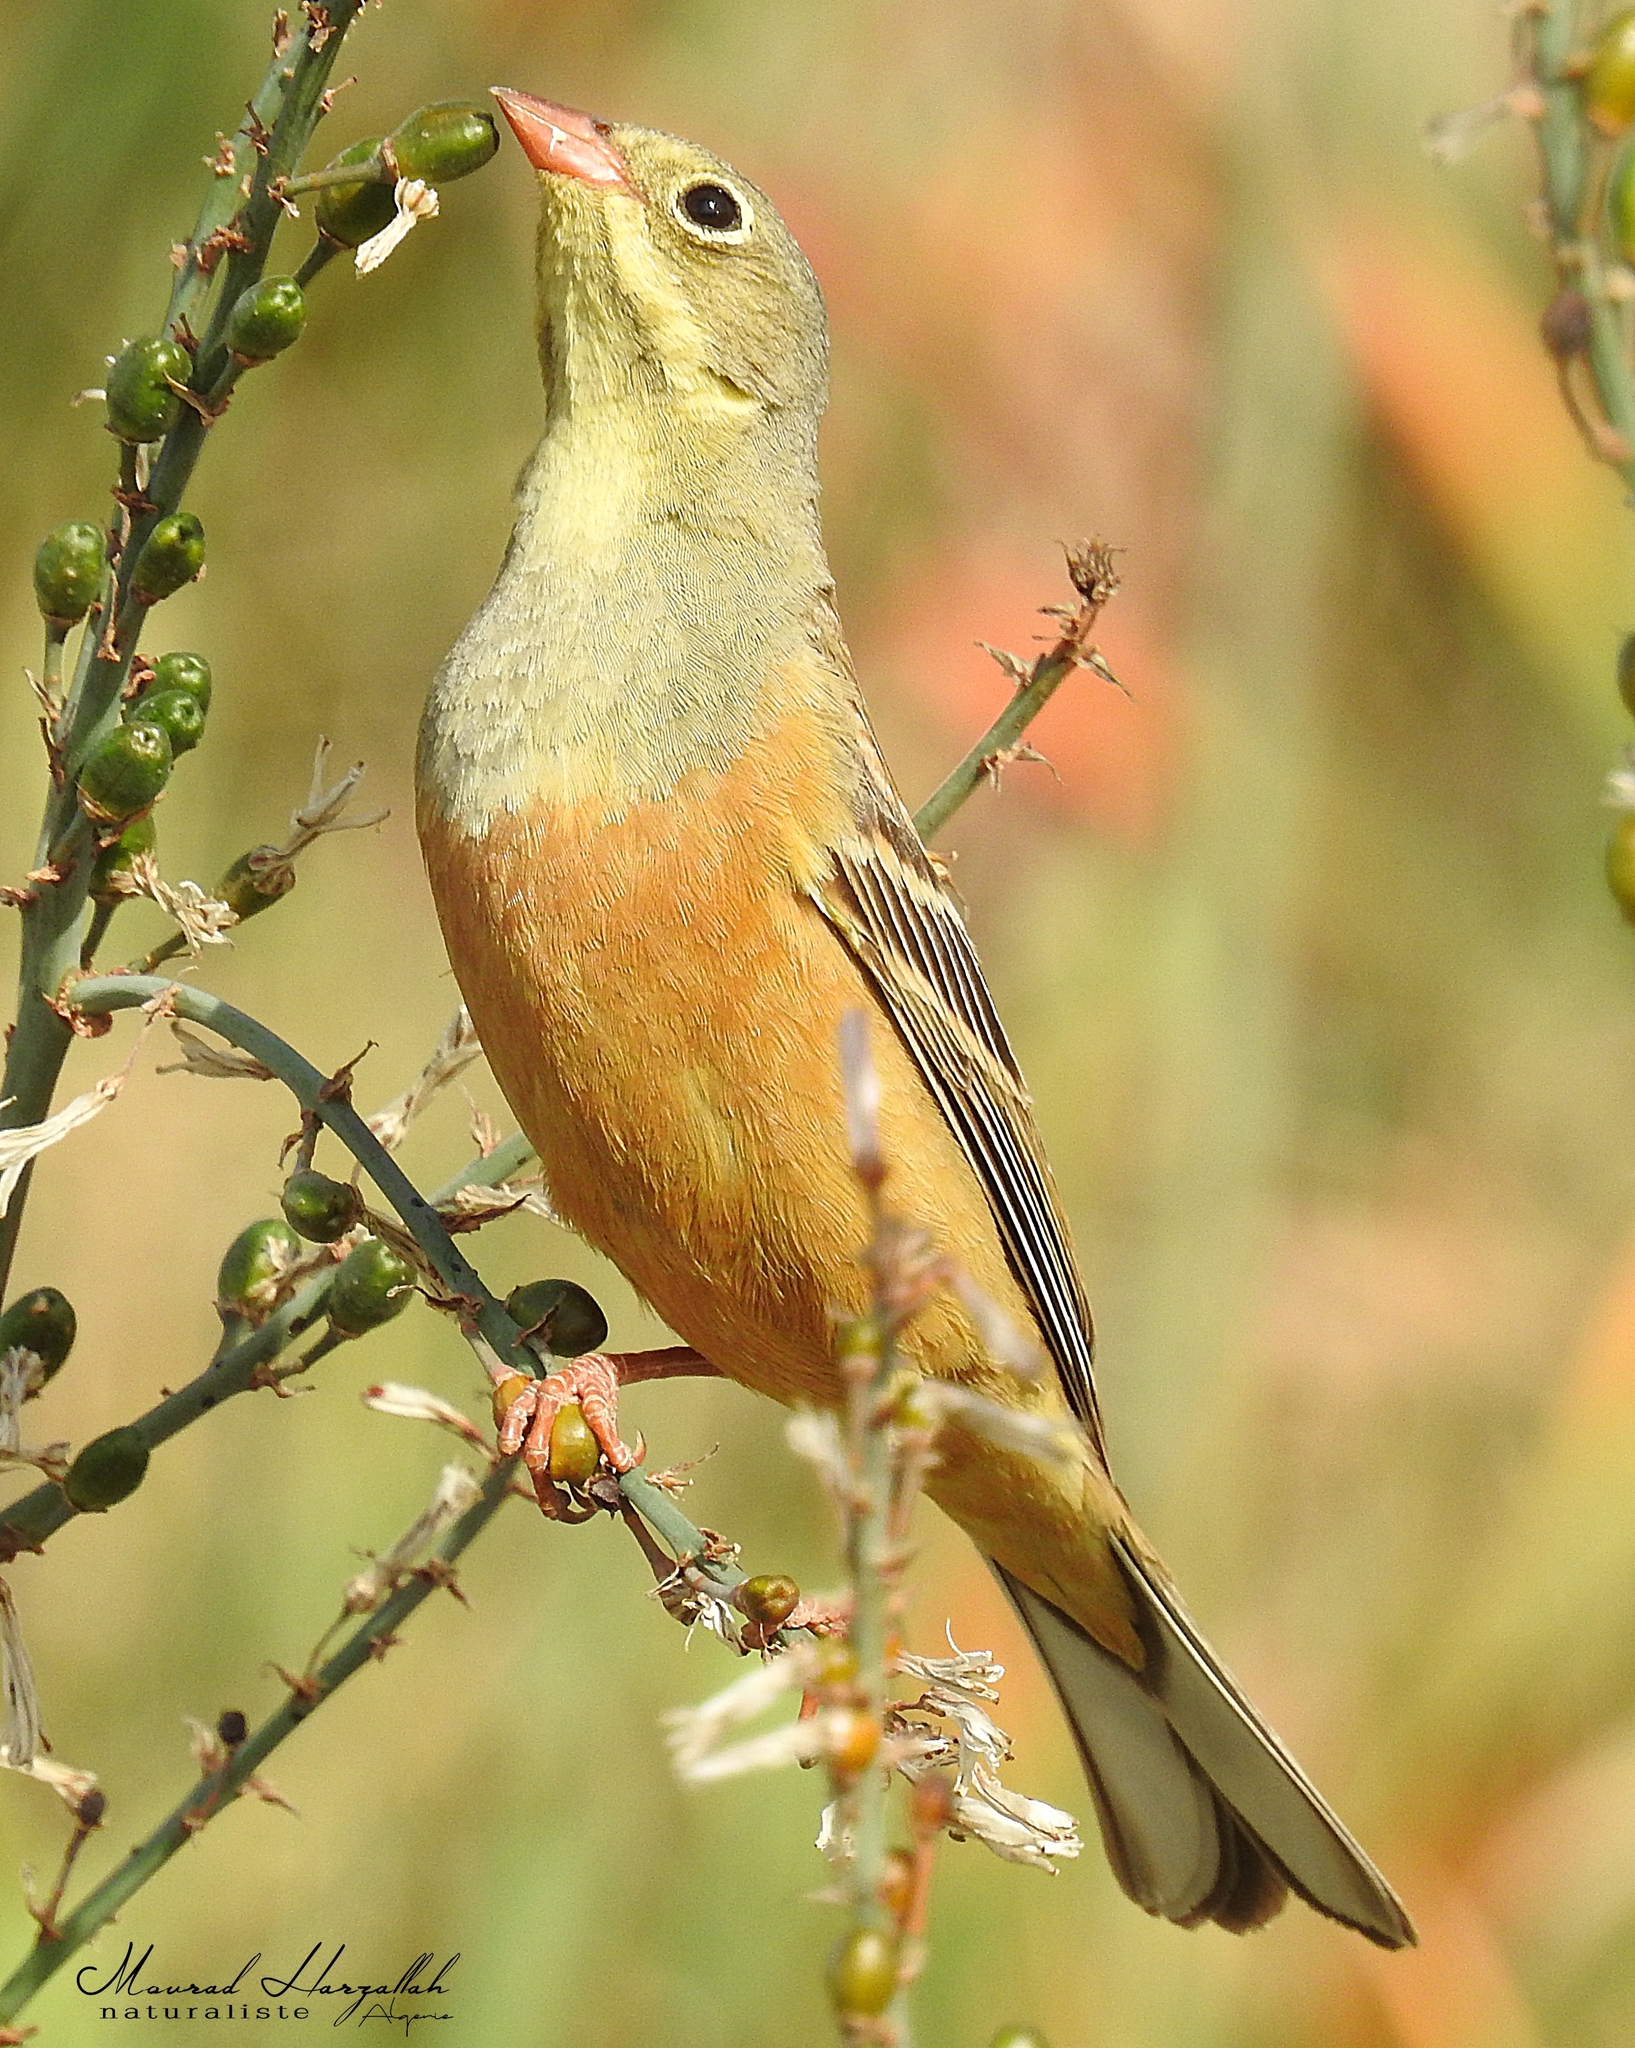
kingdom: Animalia
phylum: Chordata
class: Aves
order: Passeriformes
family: Emberizidae
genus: Emberiza
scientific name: Emberiza hortulana
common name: Ortolan bunting
